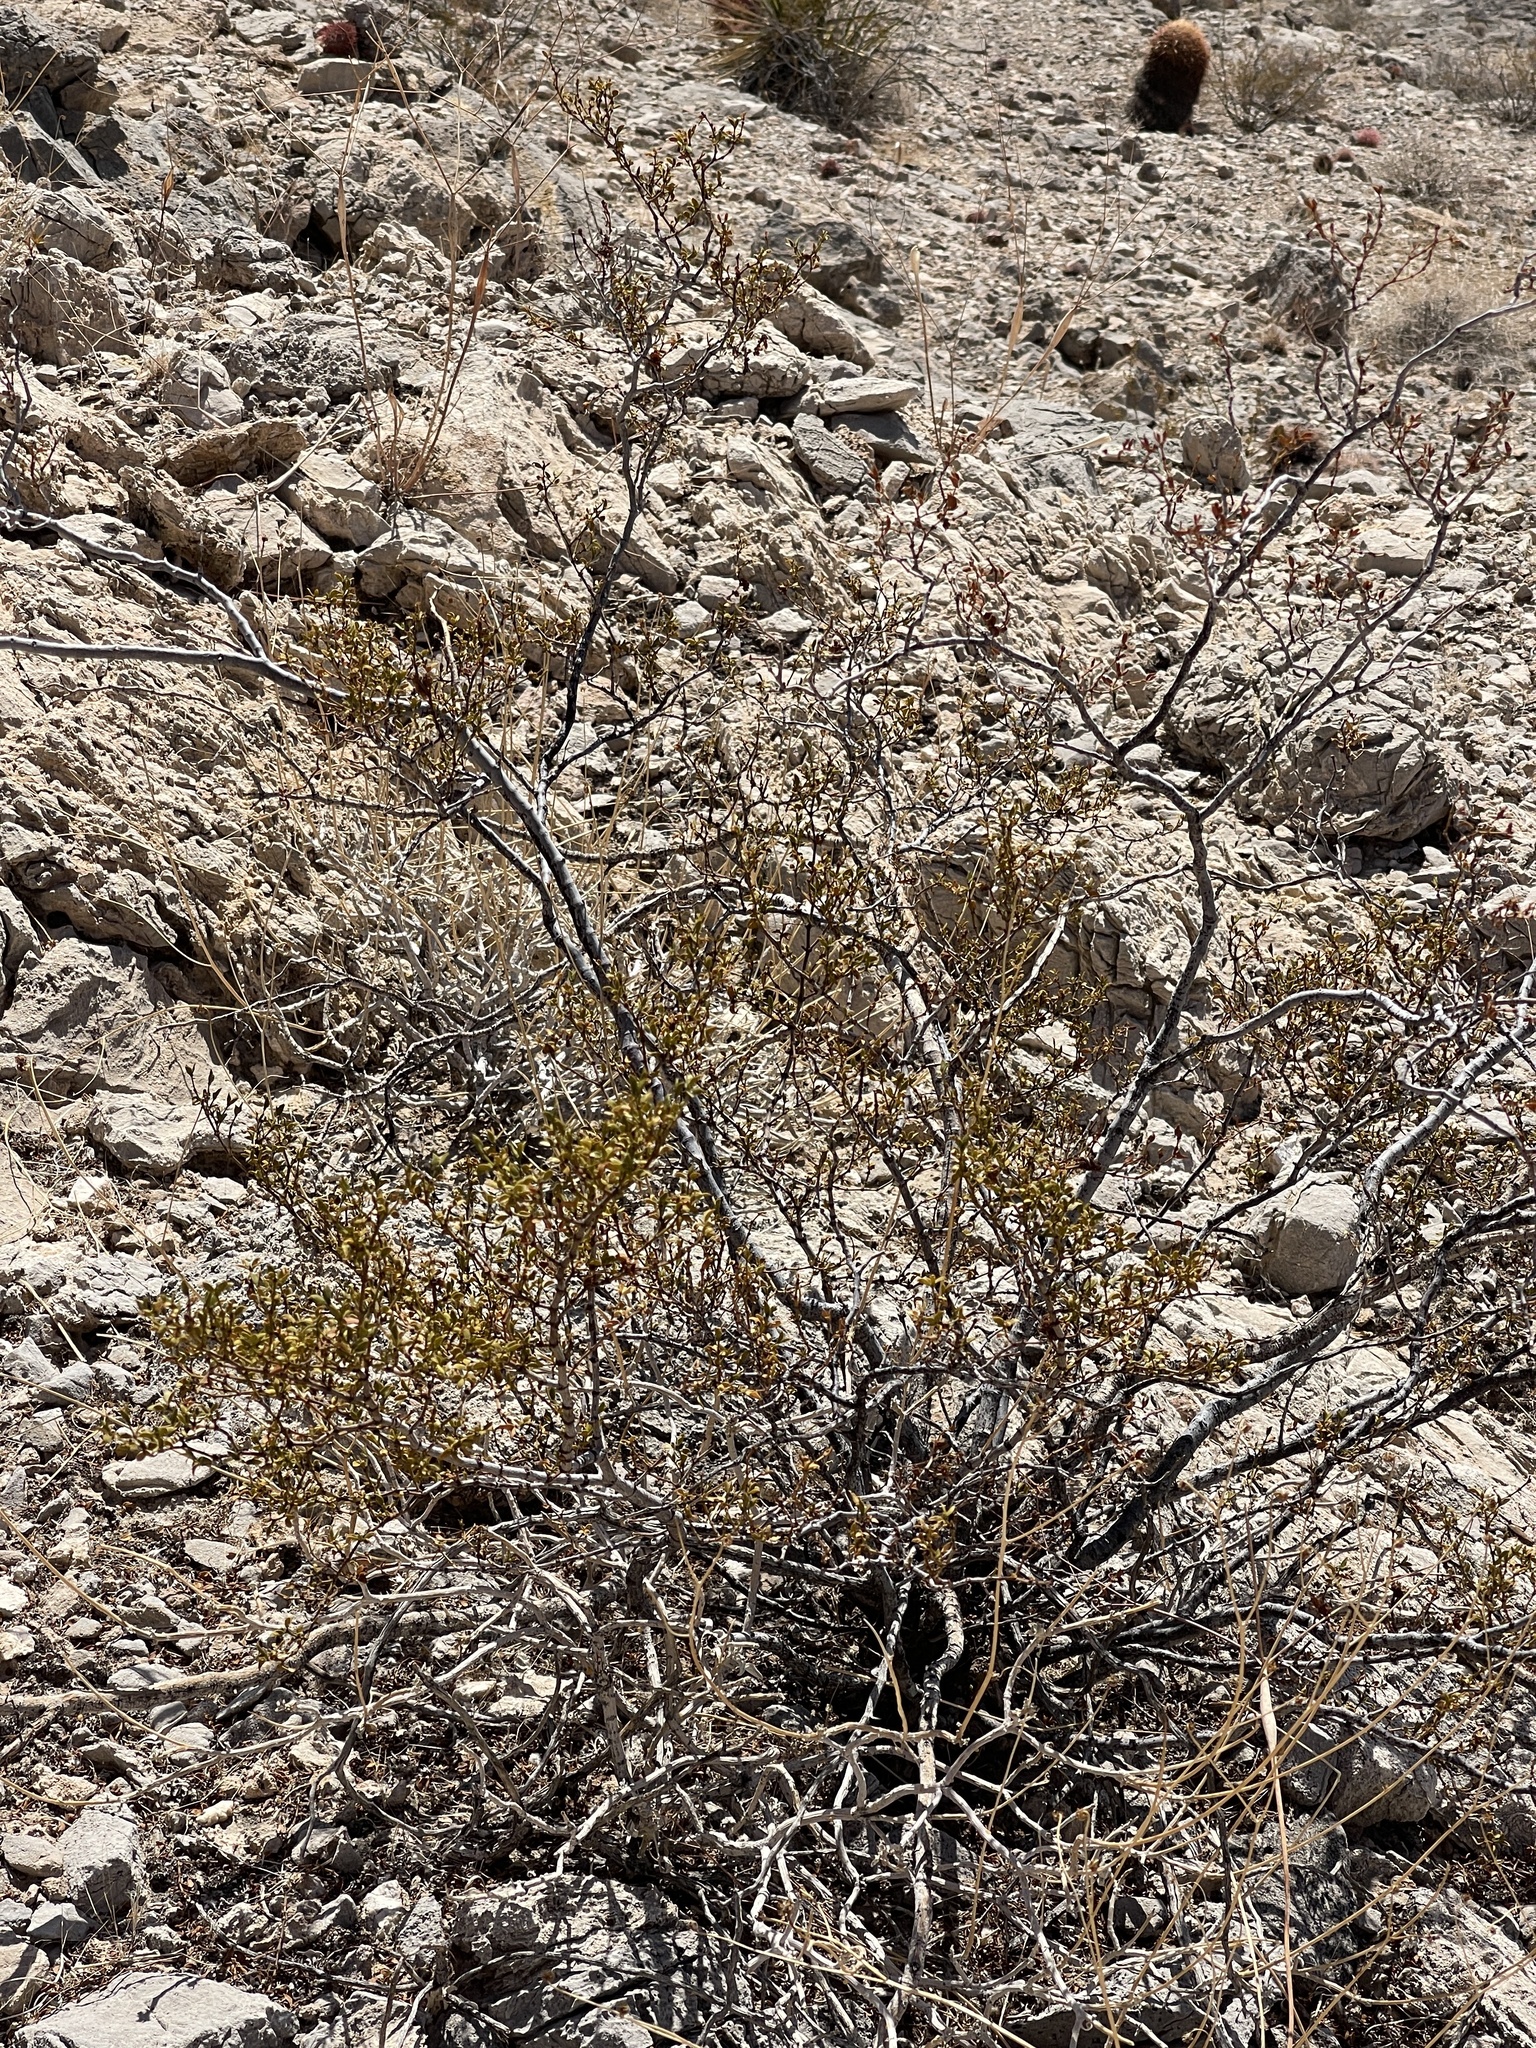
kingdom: Plantae
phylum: Tracheophyta
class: Magnoliopsida
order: Zygophyllales
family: Zygophyllaceae
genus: Larrea
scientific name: Larrea tridentata
